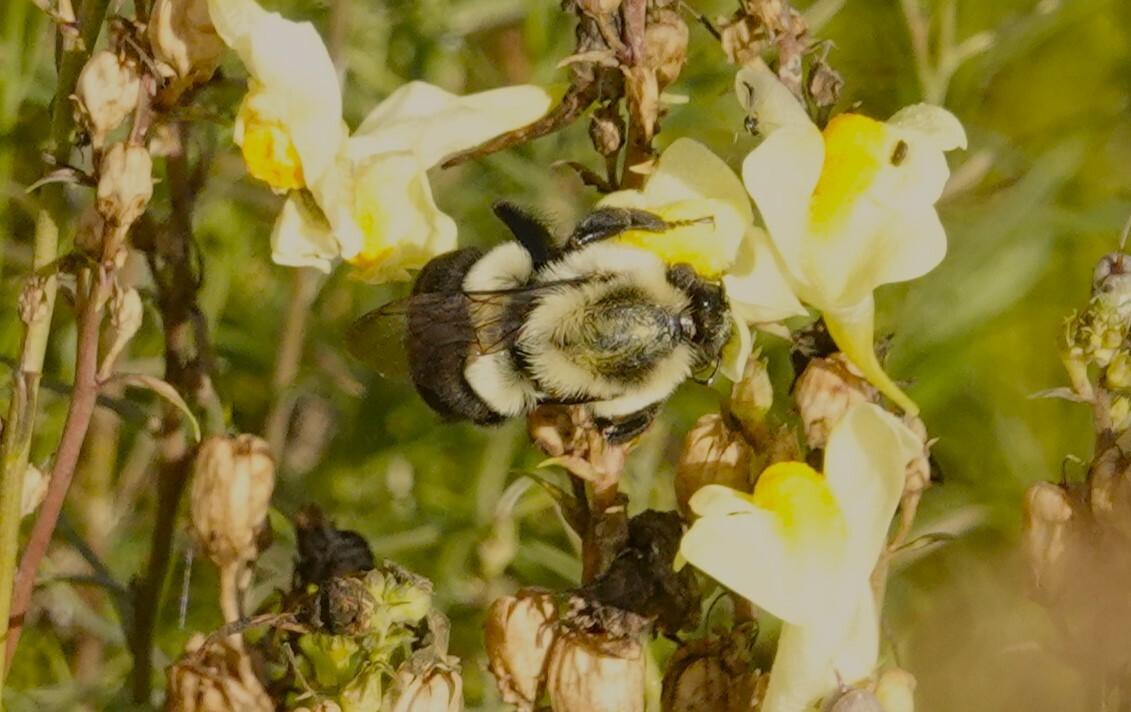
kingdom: Animalia
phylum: Arthropoda
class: Insecta
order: Hymenoptera
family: Apidae
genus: Bombus
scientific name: Bombus impatiens
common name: Common eastern bumble bee
